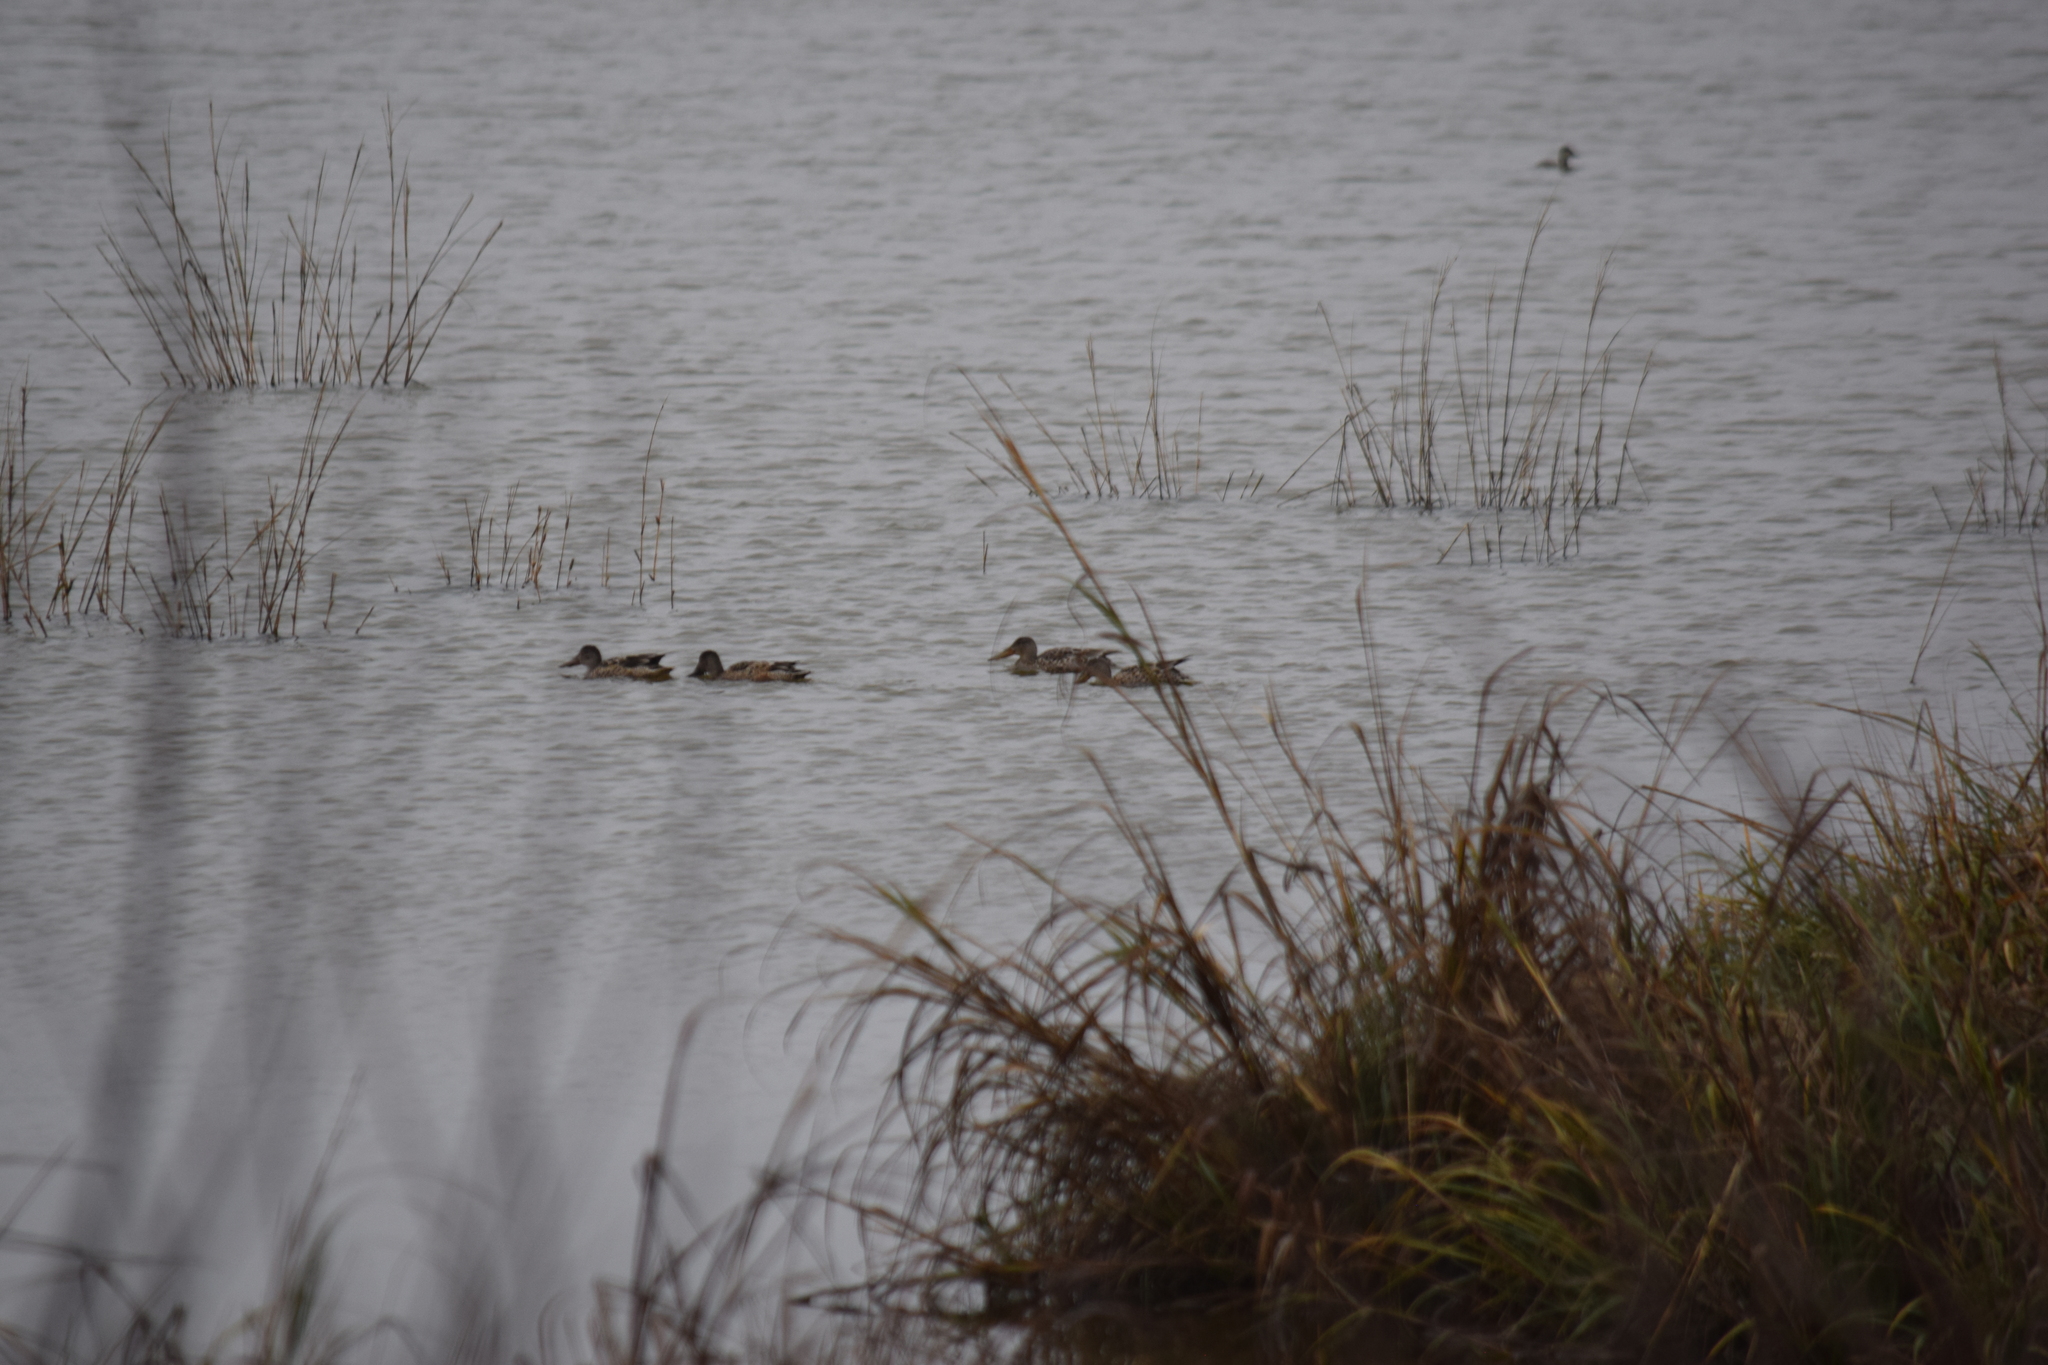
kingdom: Animalia
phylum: Chordata
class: Aves
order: Anseriformes
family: Anatidae
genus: Spatula
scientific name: Spatula clypeata
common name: Northern shoveler
